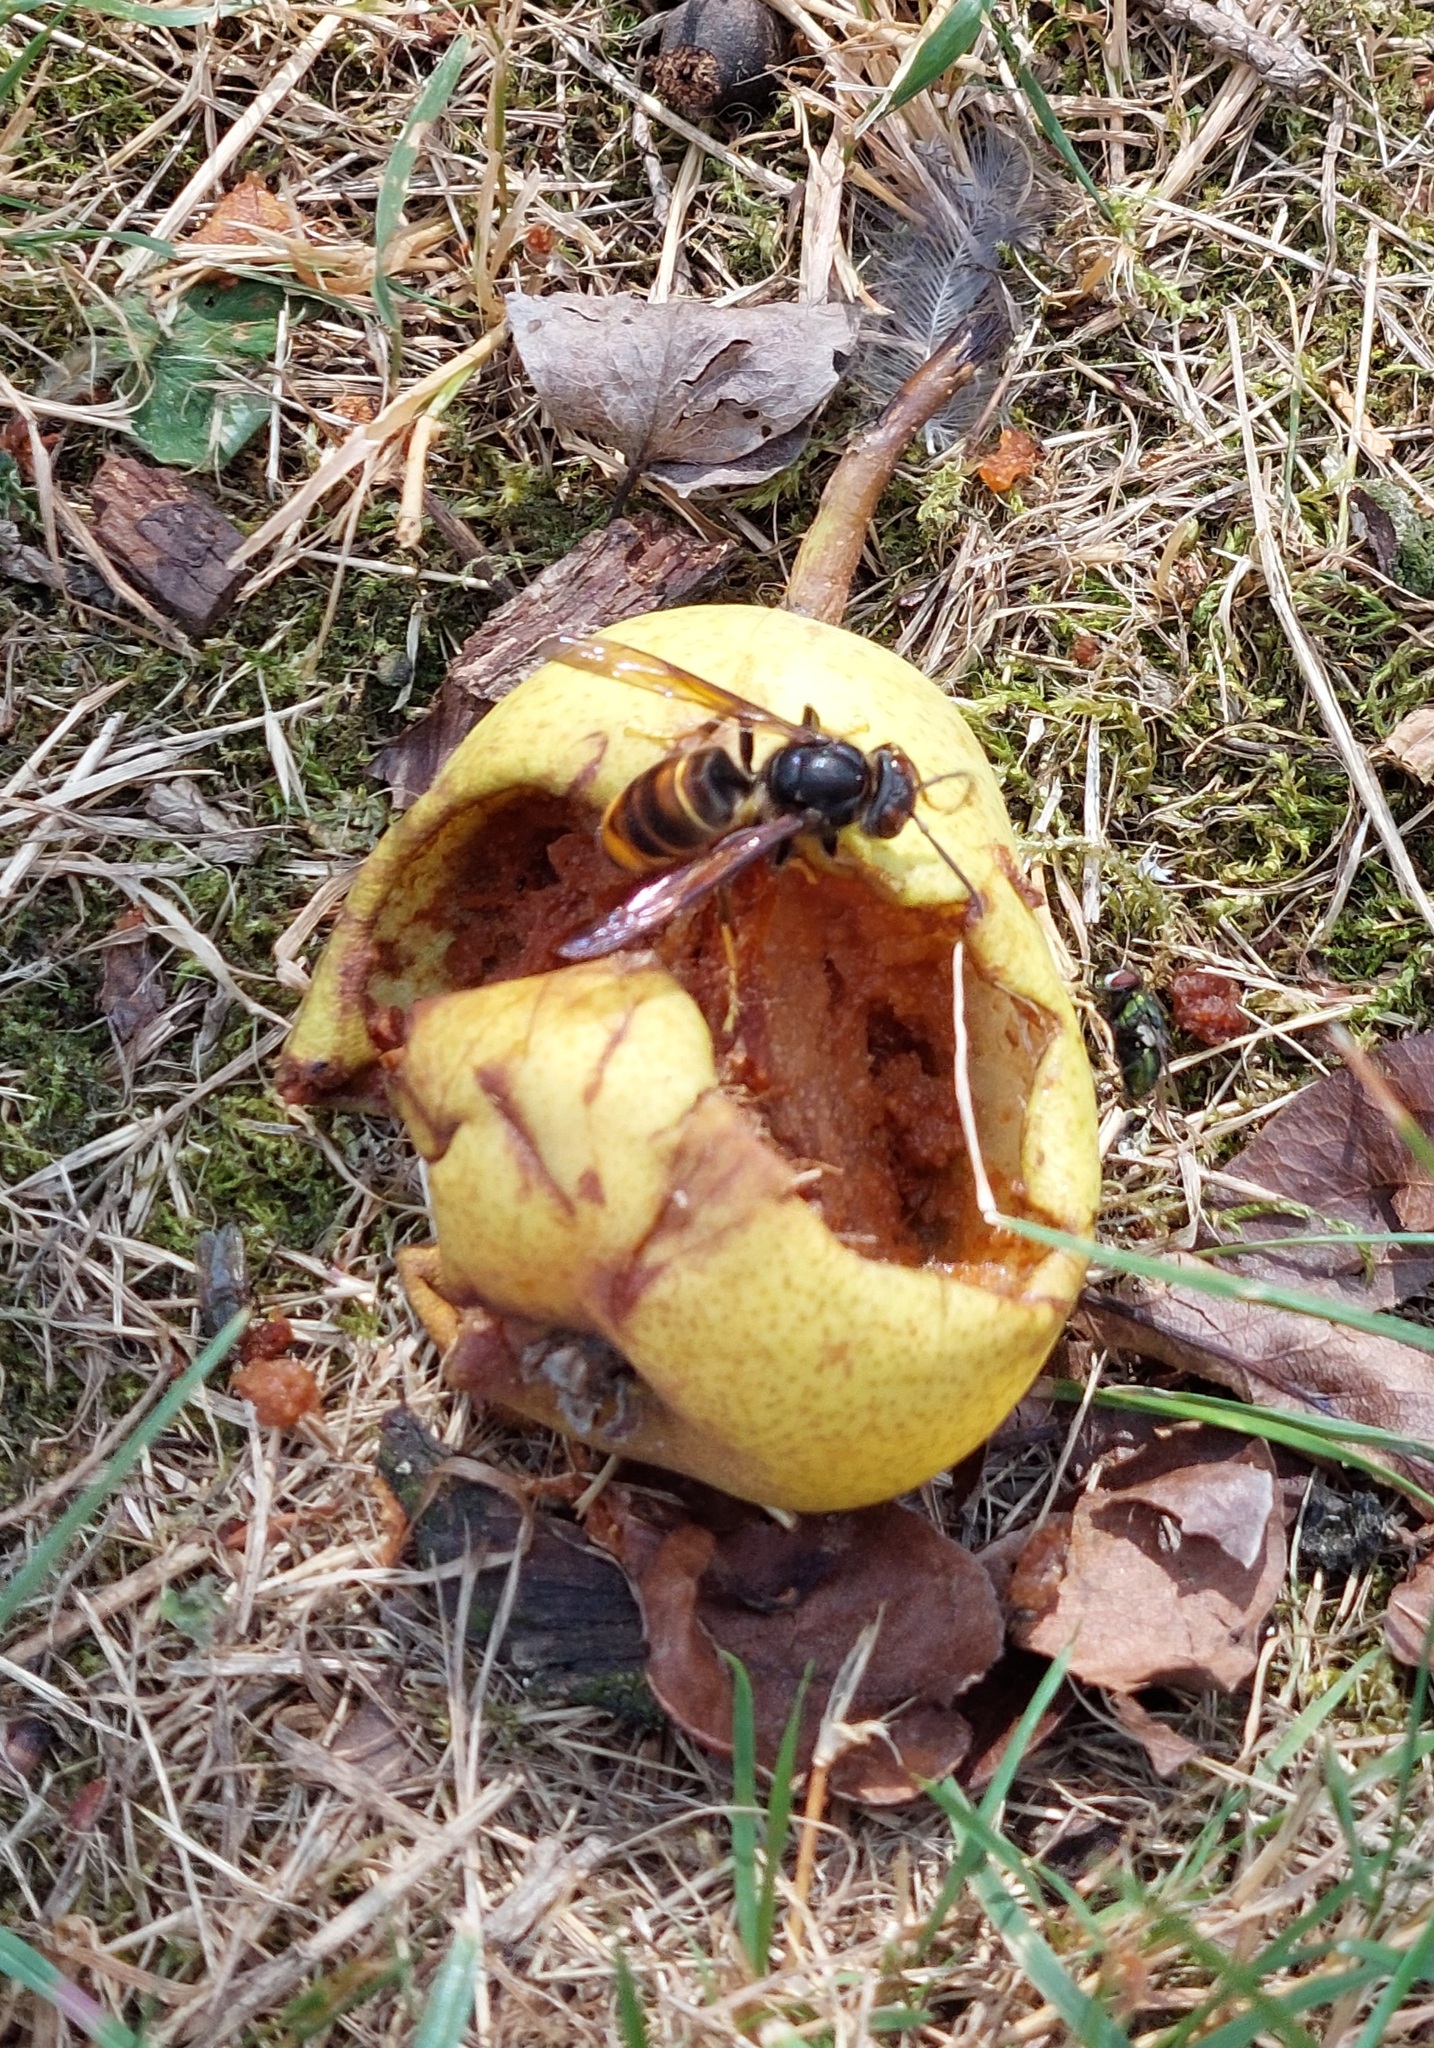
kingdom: Animalia
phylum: Arthropoda
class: Insecta
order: Hymenoptera
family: Vespidae
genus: Vespa
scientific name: Vespa velutina
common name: Asian hornet
